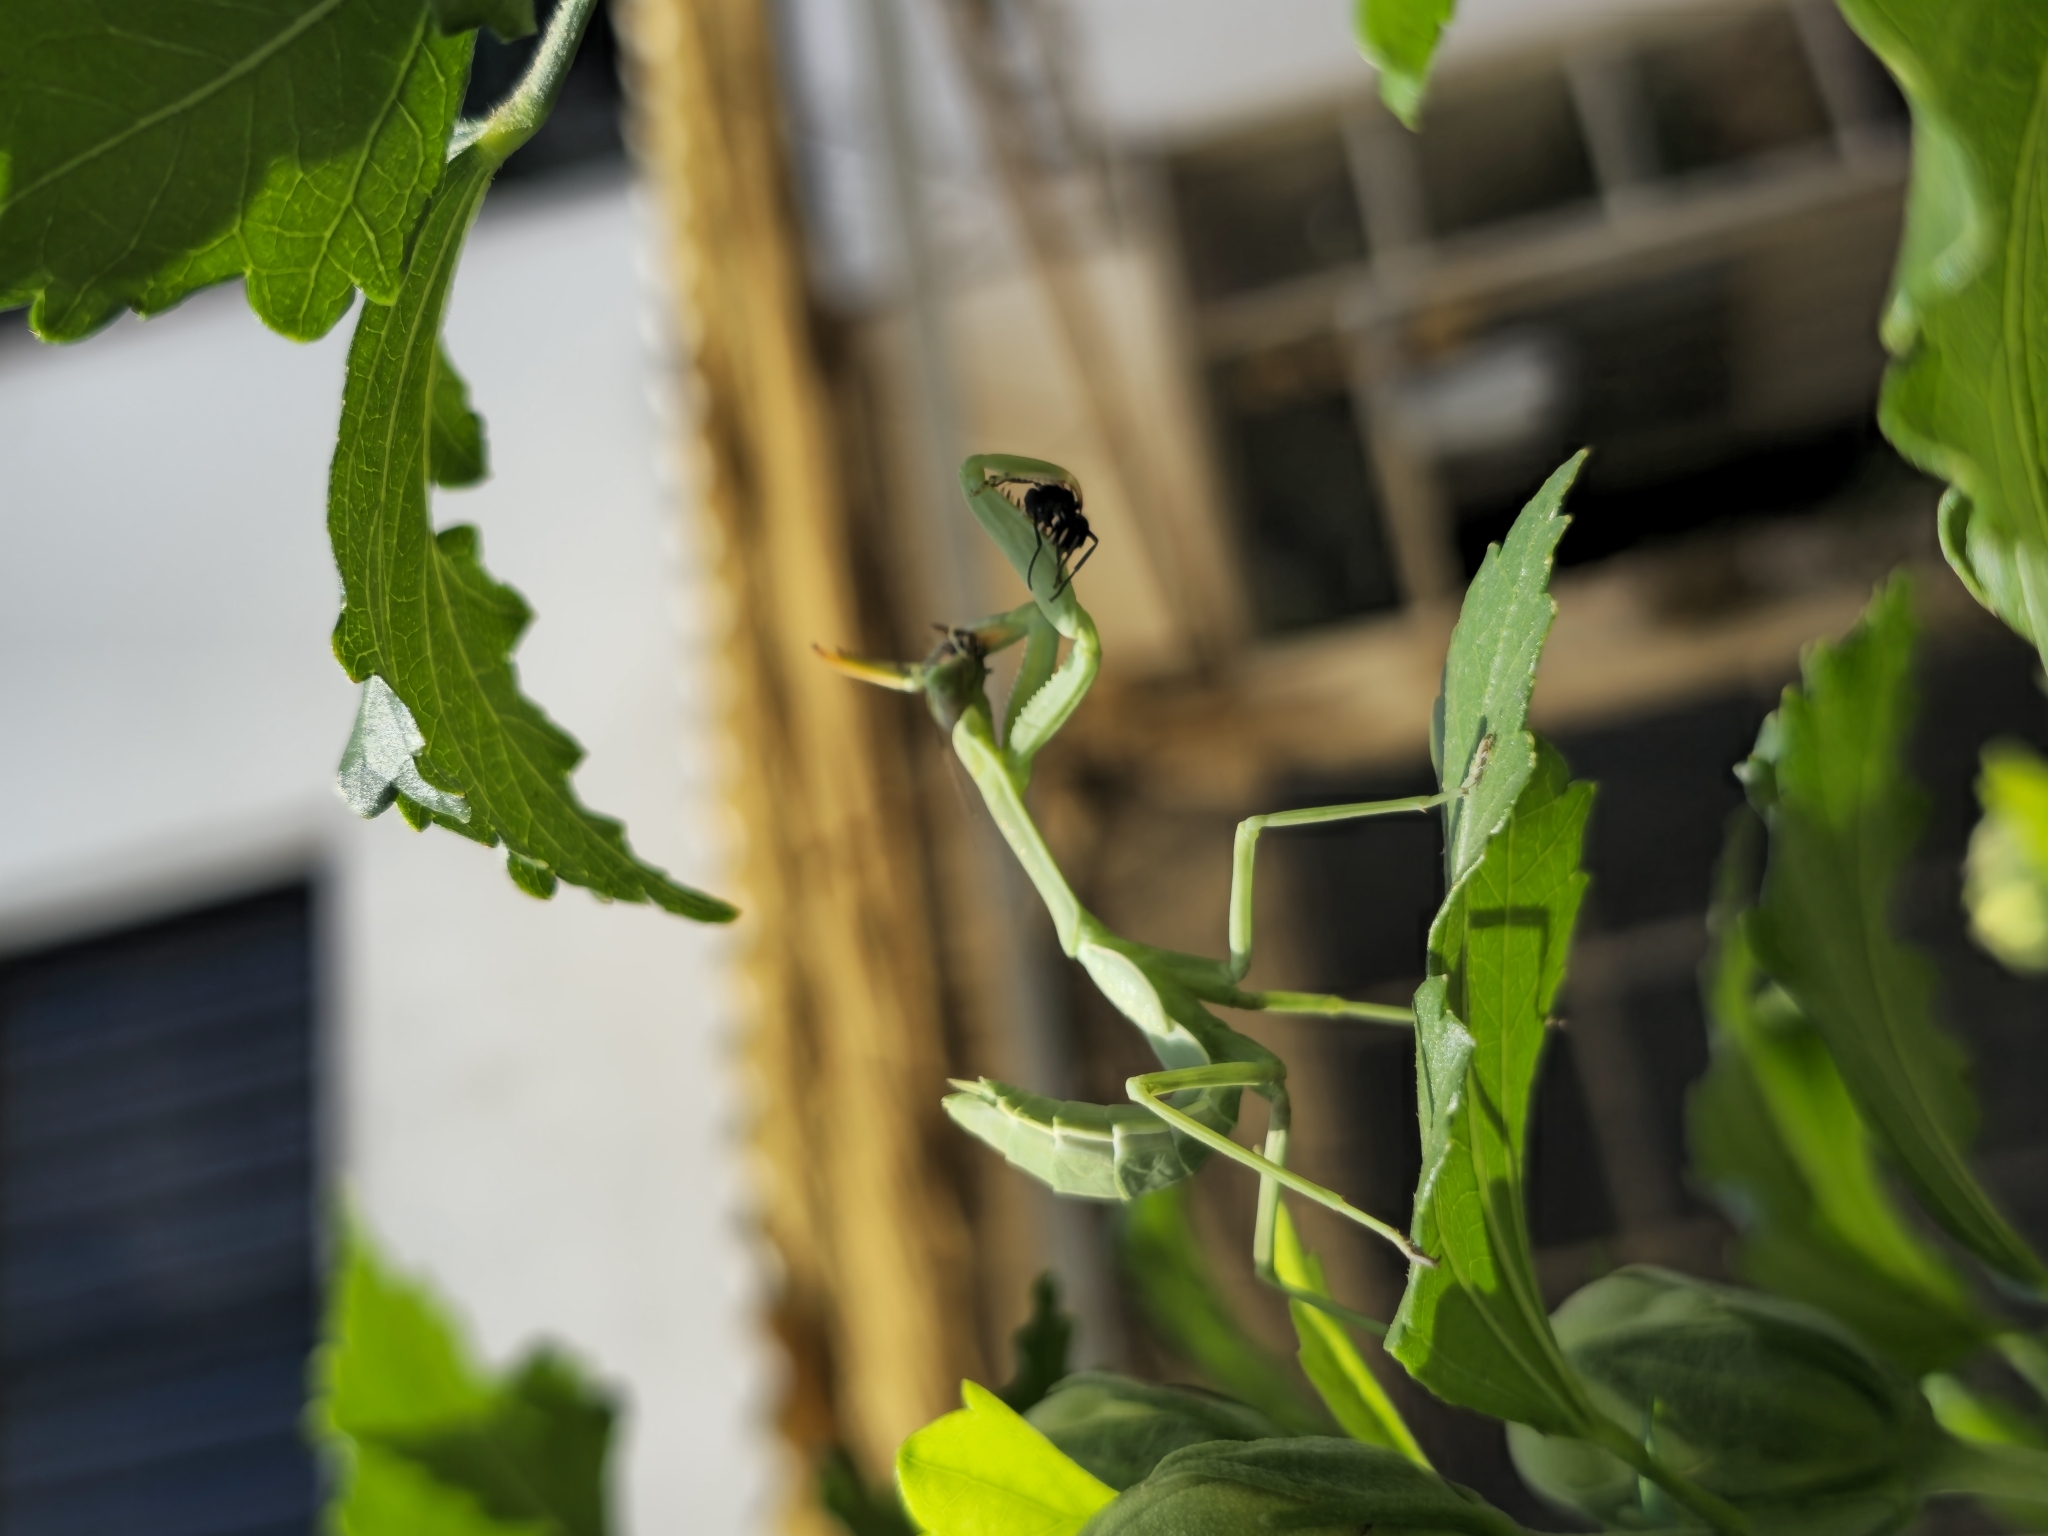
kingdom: Animalia
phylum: Arthropoda
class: Insecta
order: Mantodea
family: Mantidae
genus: Stagmatoptera
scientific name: Stagmatoptera hyaloptera
